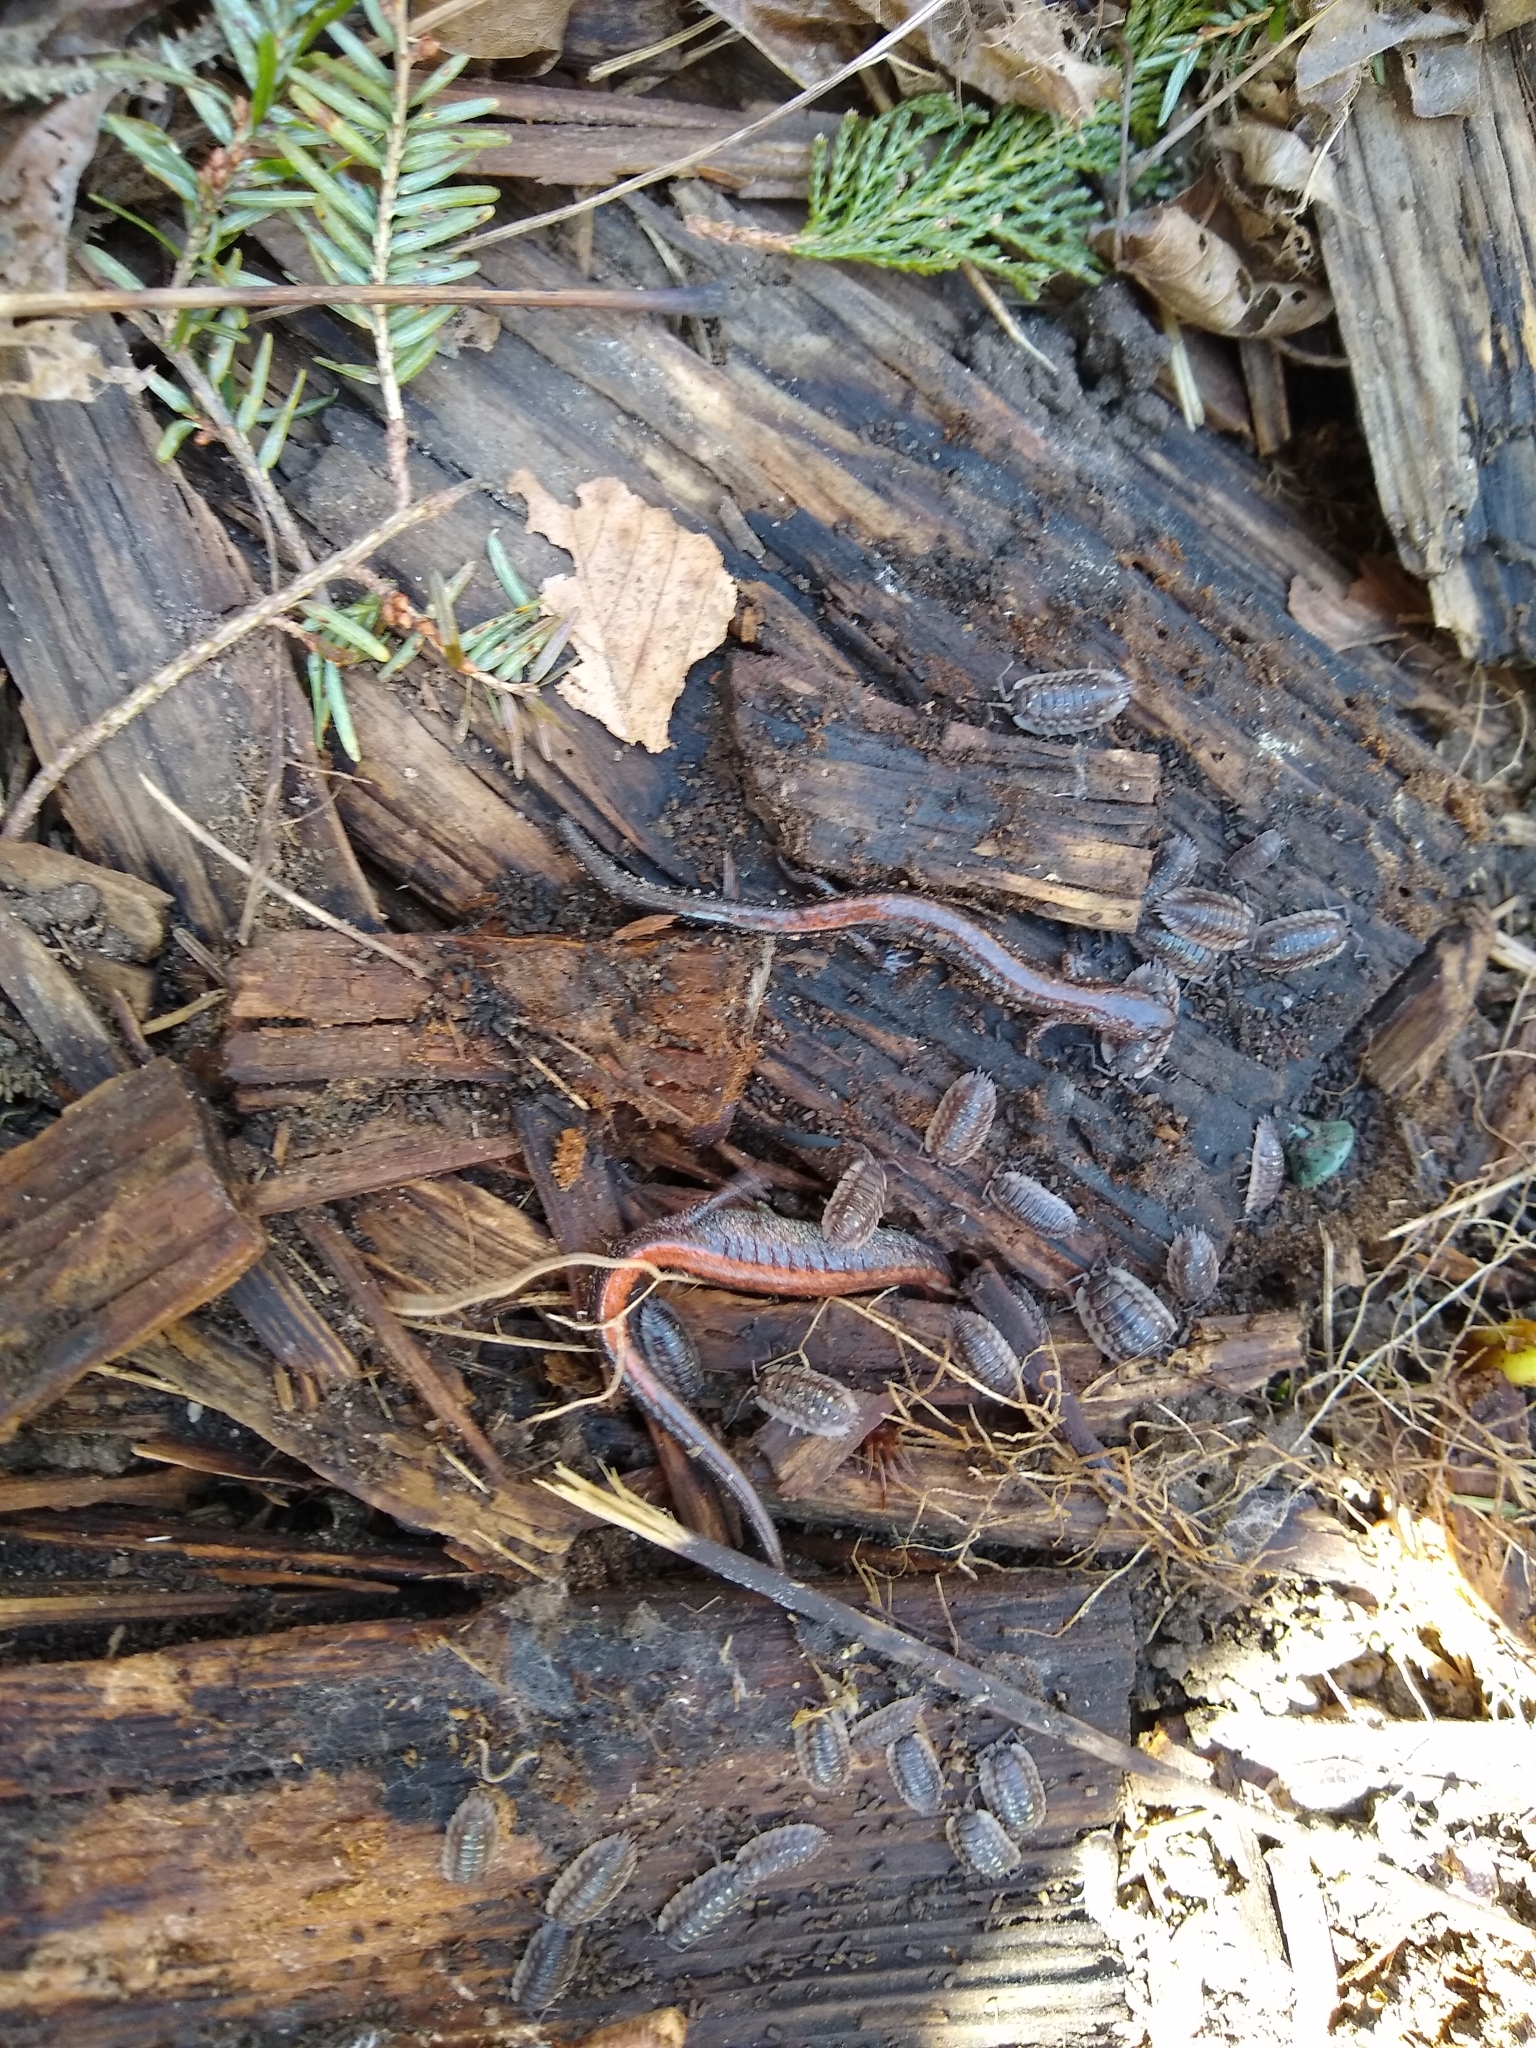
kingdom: Animalia
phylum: Chordata
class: Amphibia
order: Caudata
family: Plethodontidae
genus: Plethodon
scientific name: Plethodon cinereus
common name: Redback salamander
